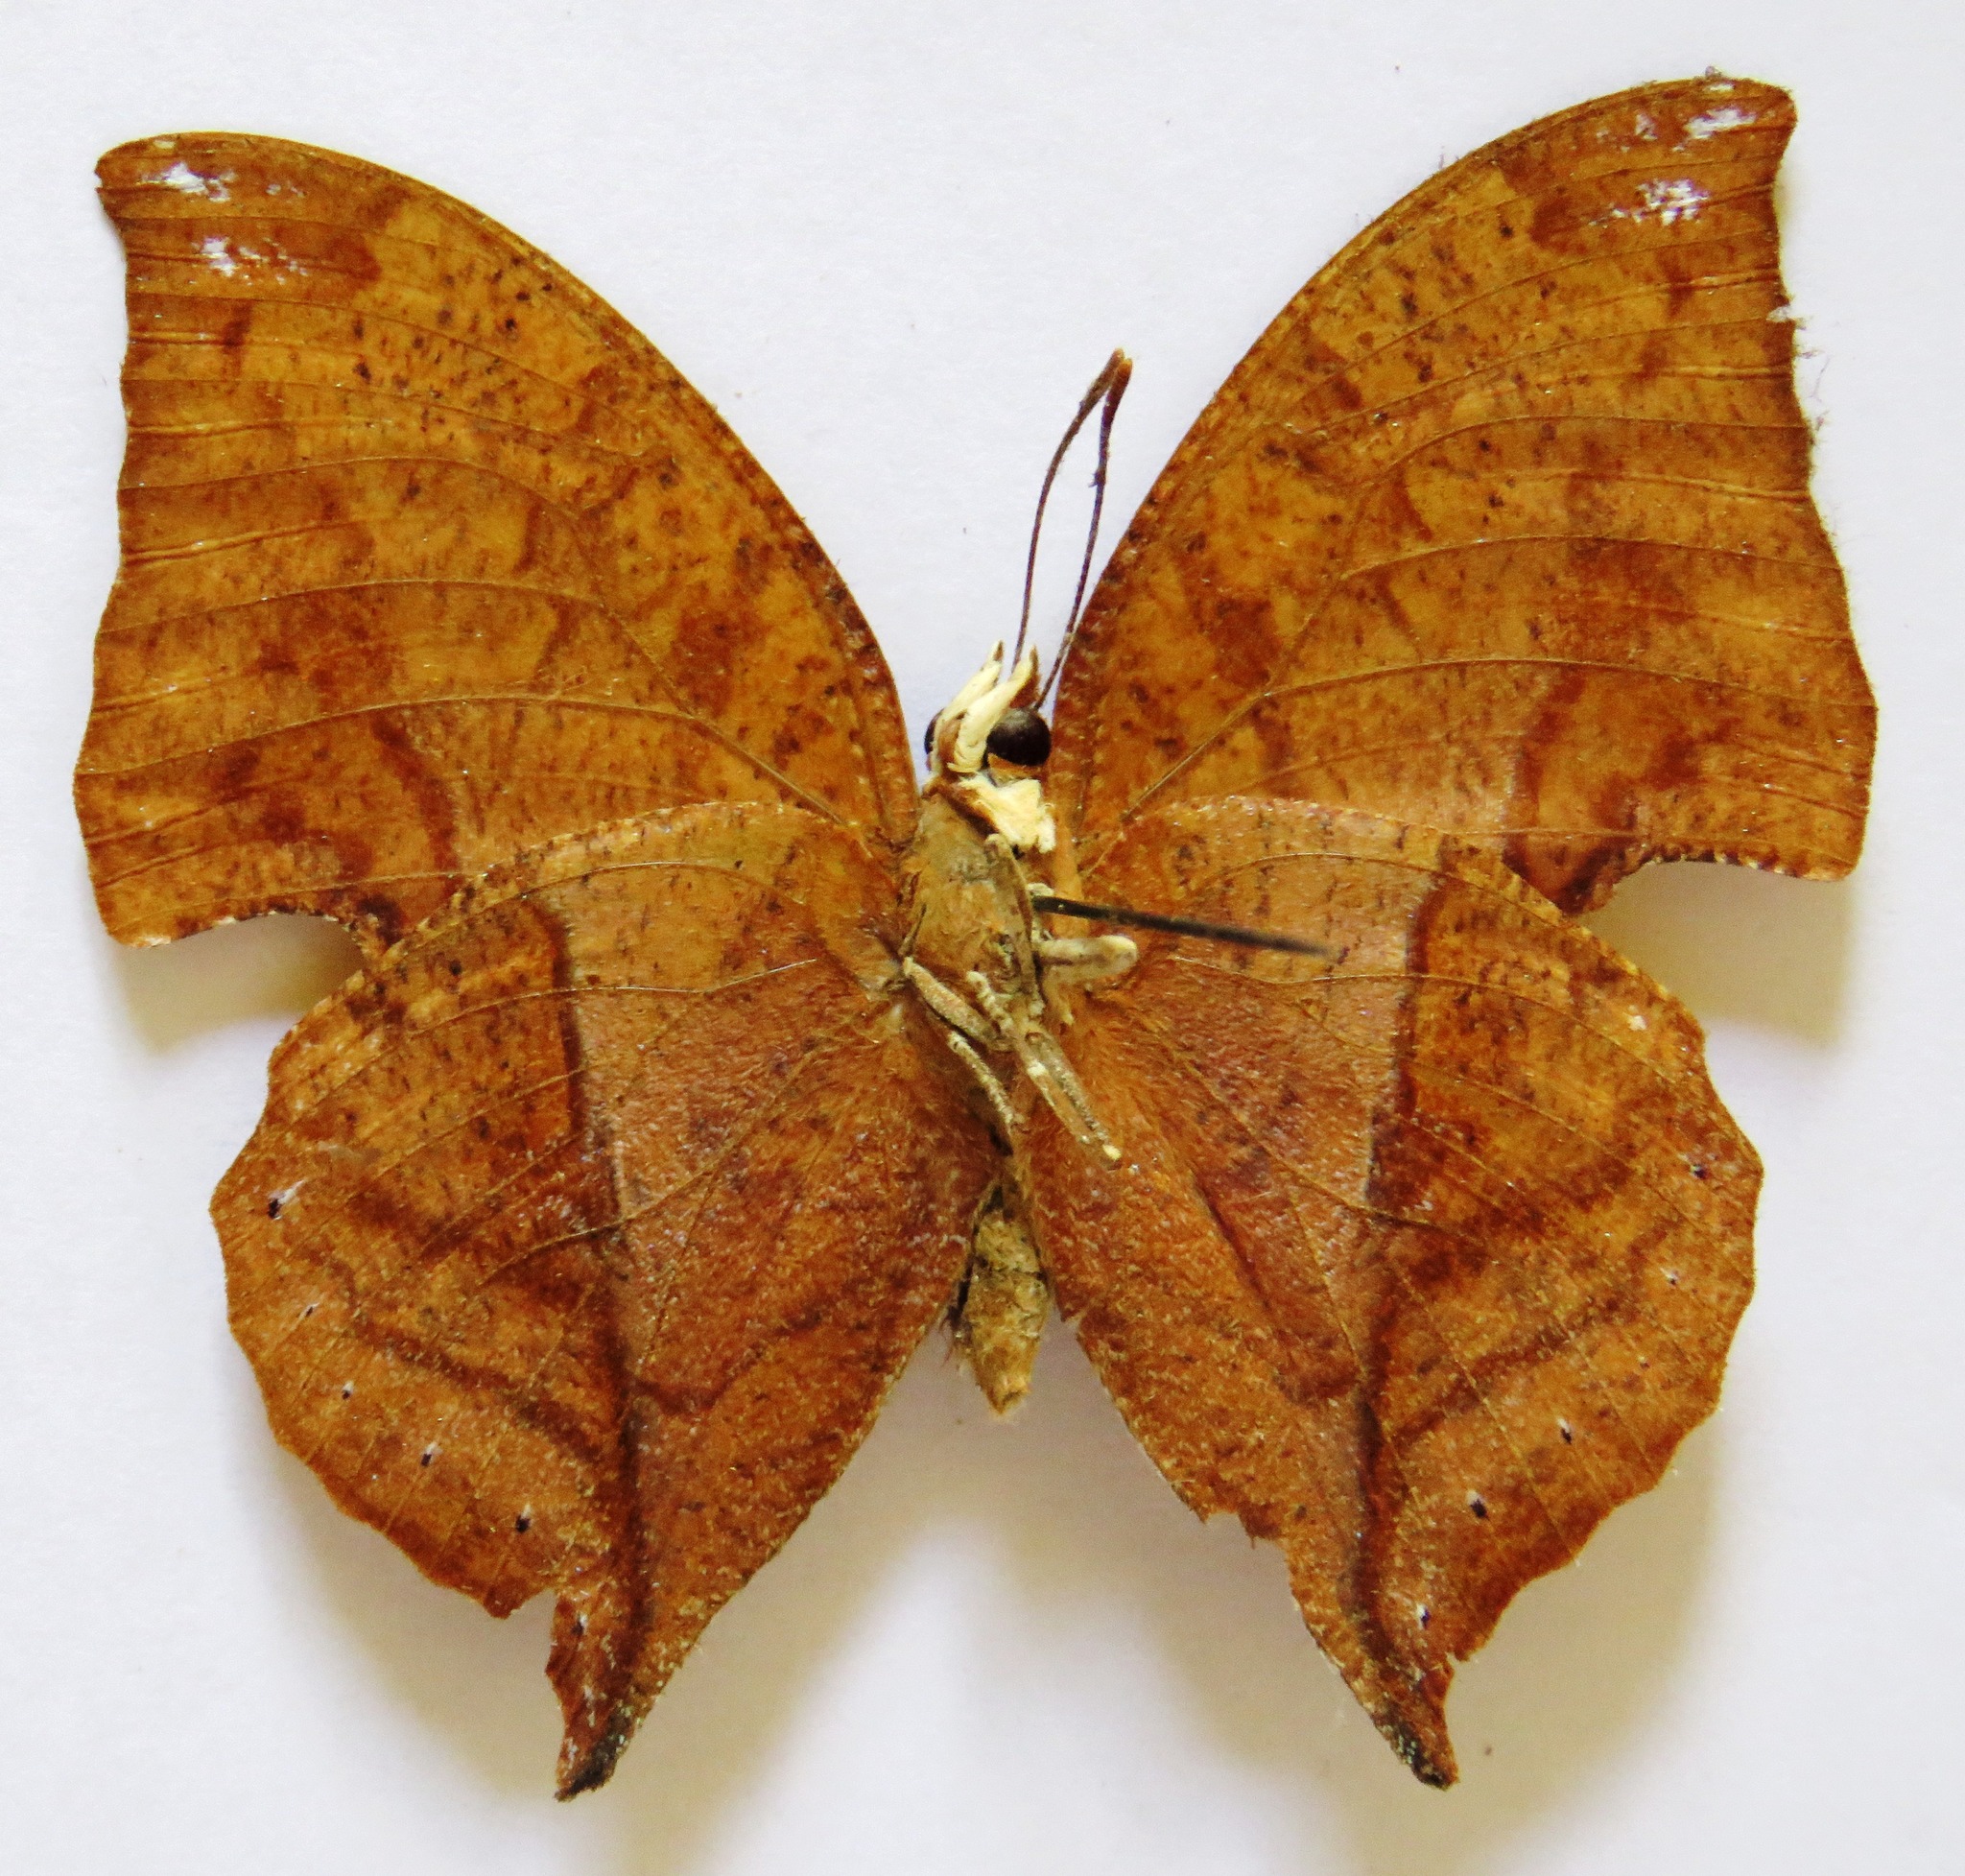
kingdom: Animalia
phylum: Arthropoda
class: Insecta
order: Lepidoptera
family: Nymphalidae
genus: Zaretis
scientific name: Zaretis itys
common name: Skeletonized leafwing
